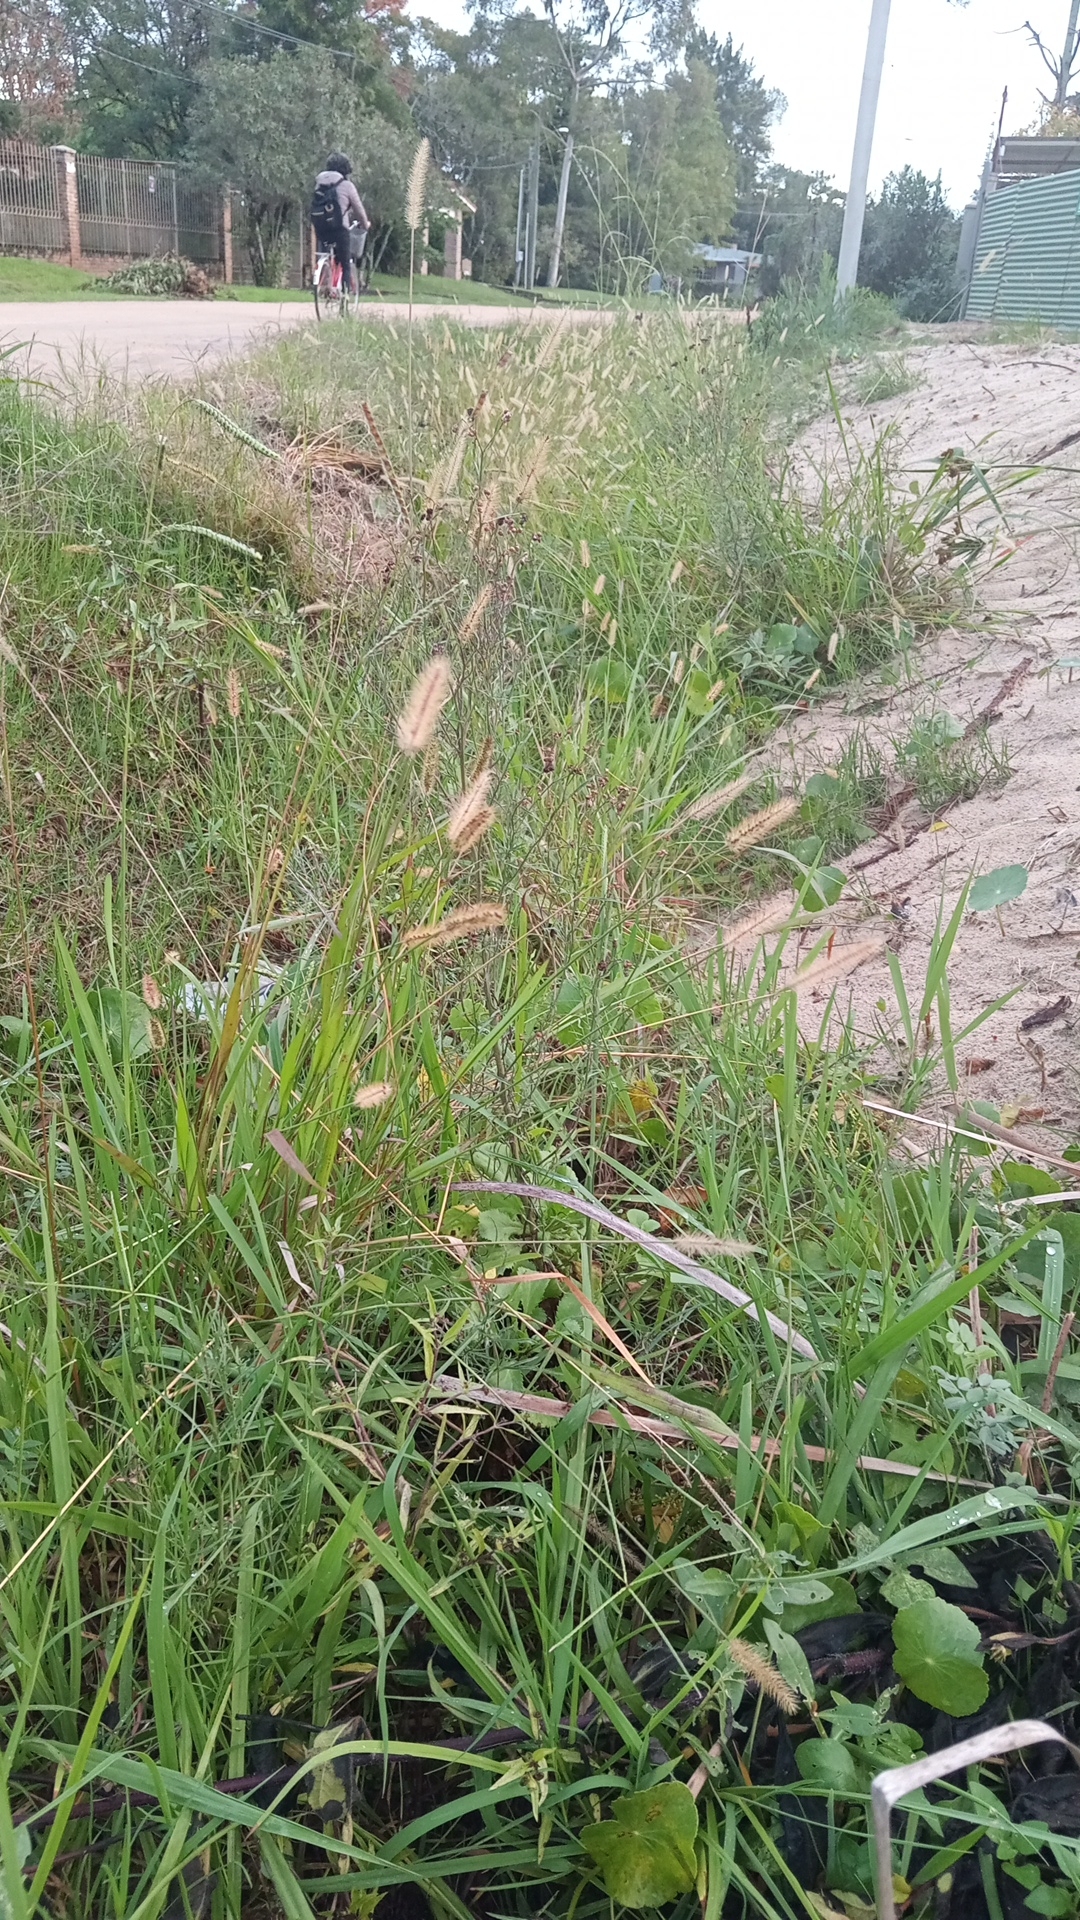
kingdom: Plantae
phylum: Tracheophyta
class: Liliopsida
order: Poales
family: Poaceae
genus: Setaria
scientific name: Setaria parviflora
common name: Knotroot bristle-grass
